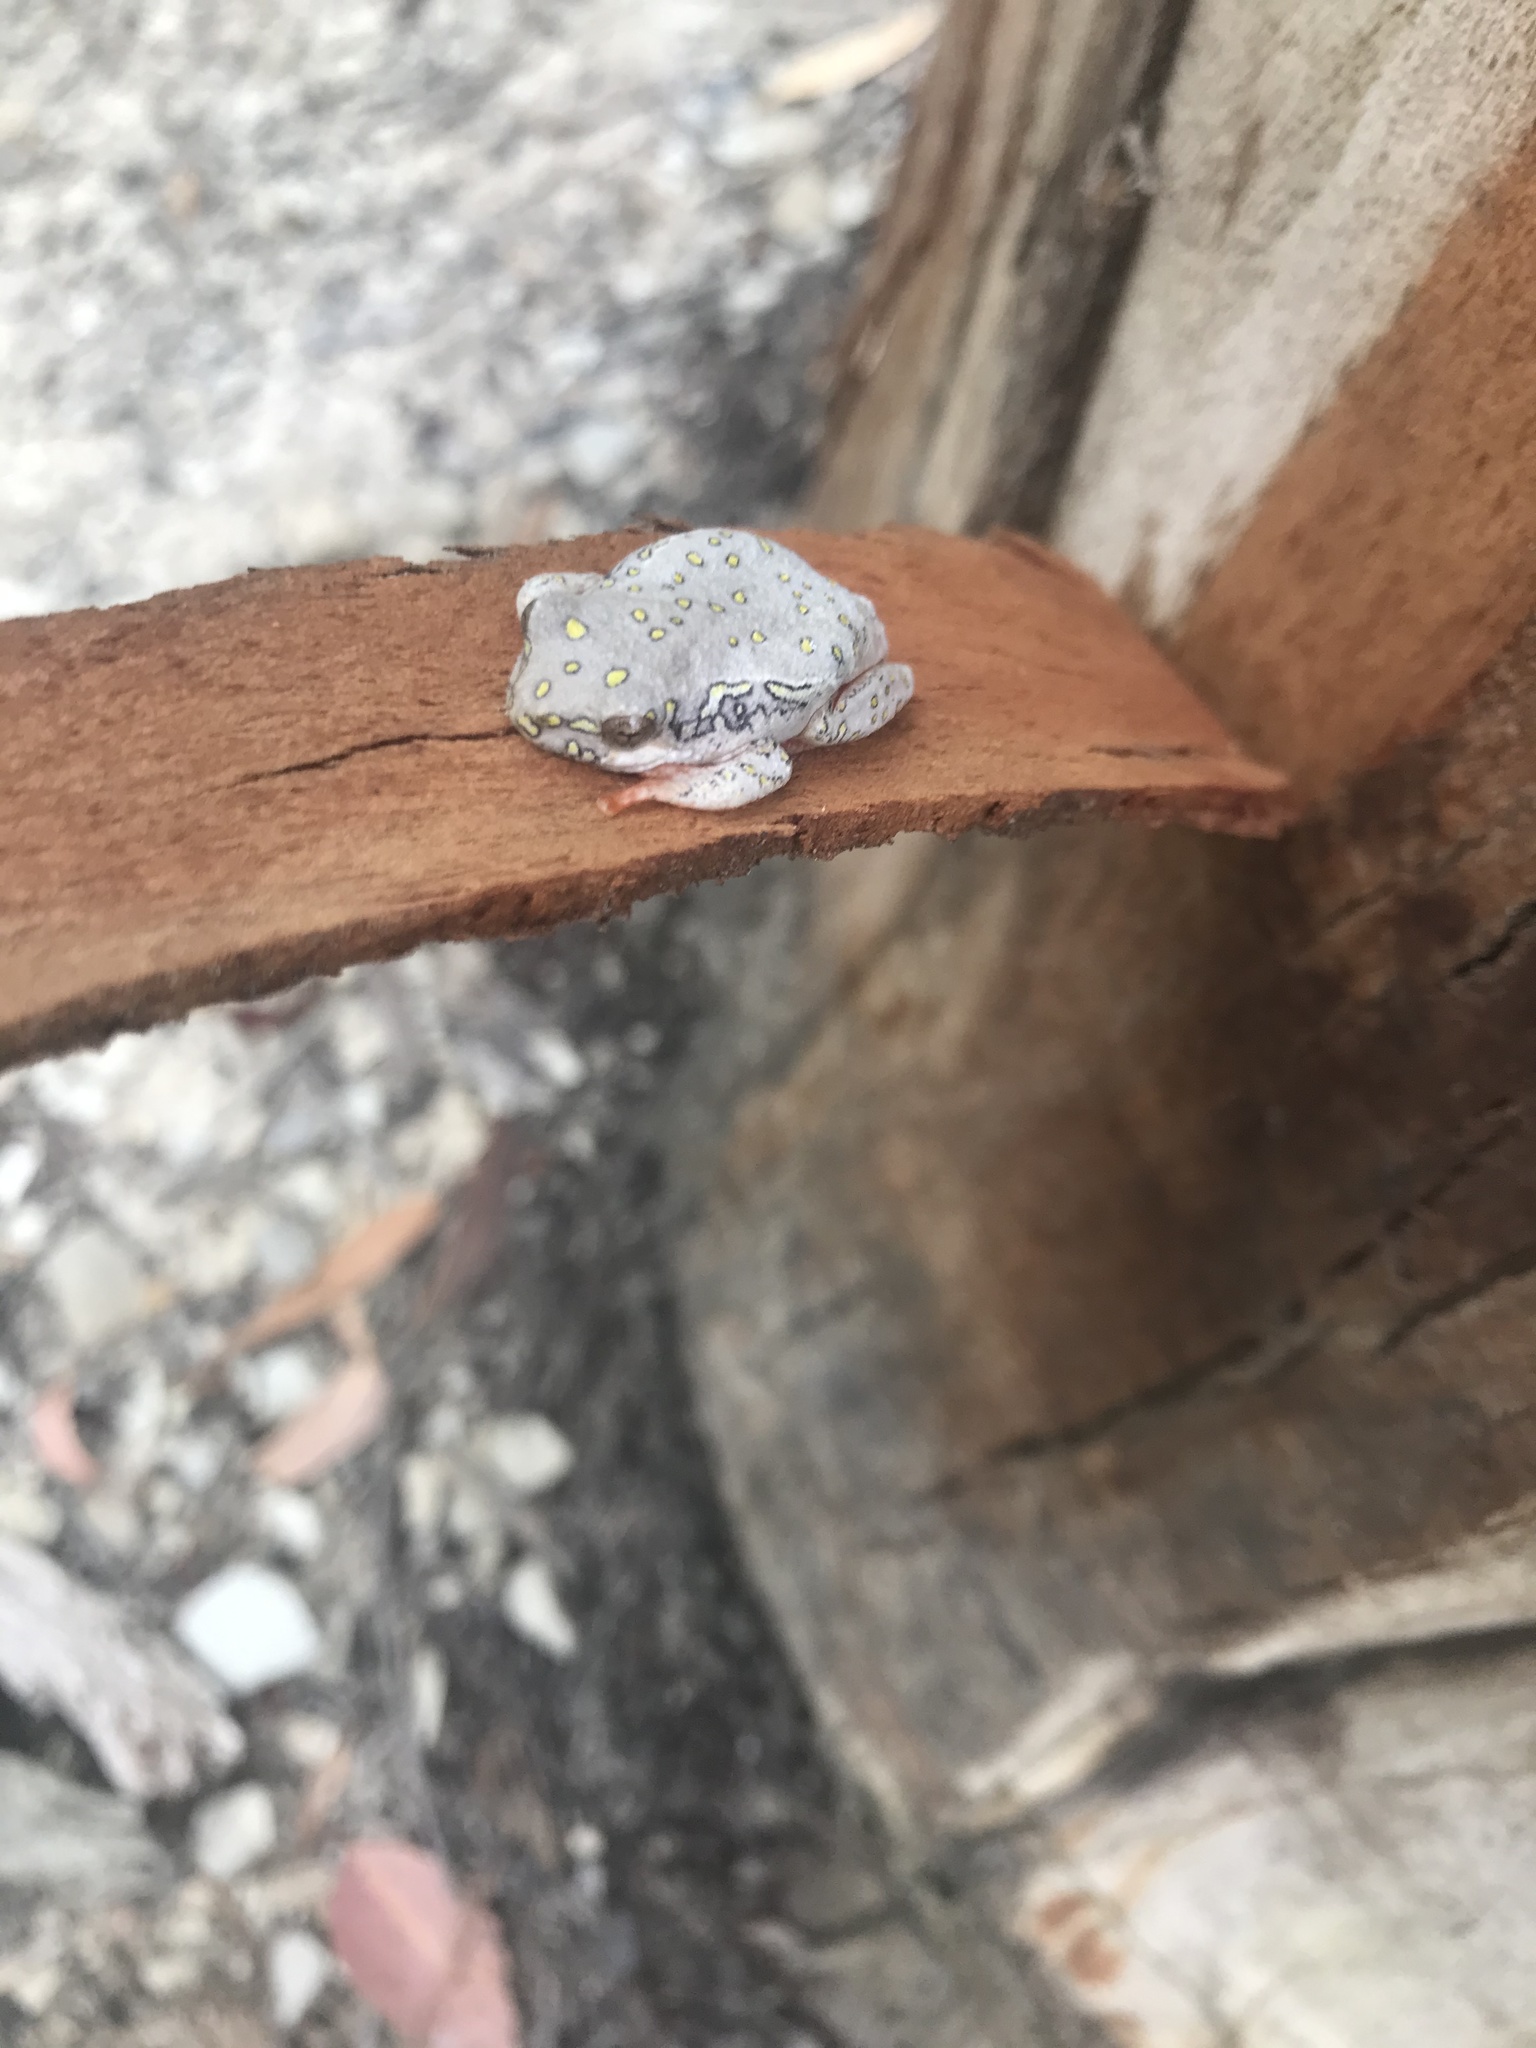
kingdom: Animalia
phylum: Chordata
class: Amphibia
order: Anura
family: Hyperoliidae
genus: Hyperolius
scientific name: Hyperolius marmoratus
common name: Painted reed frog
